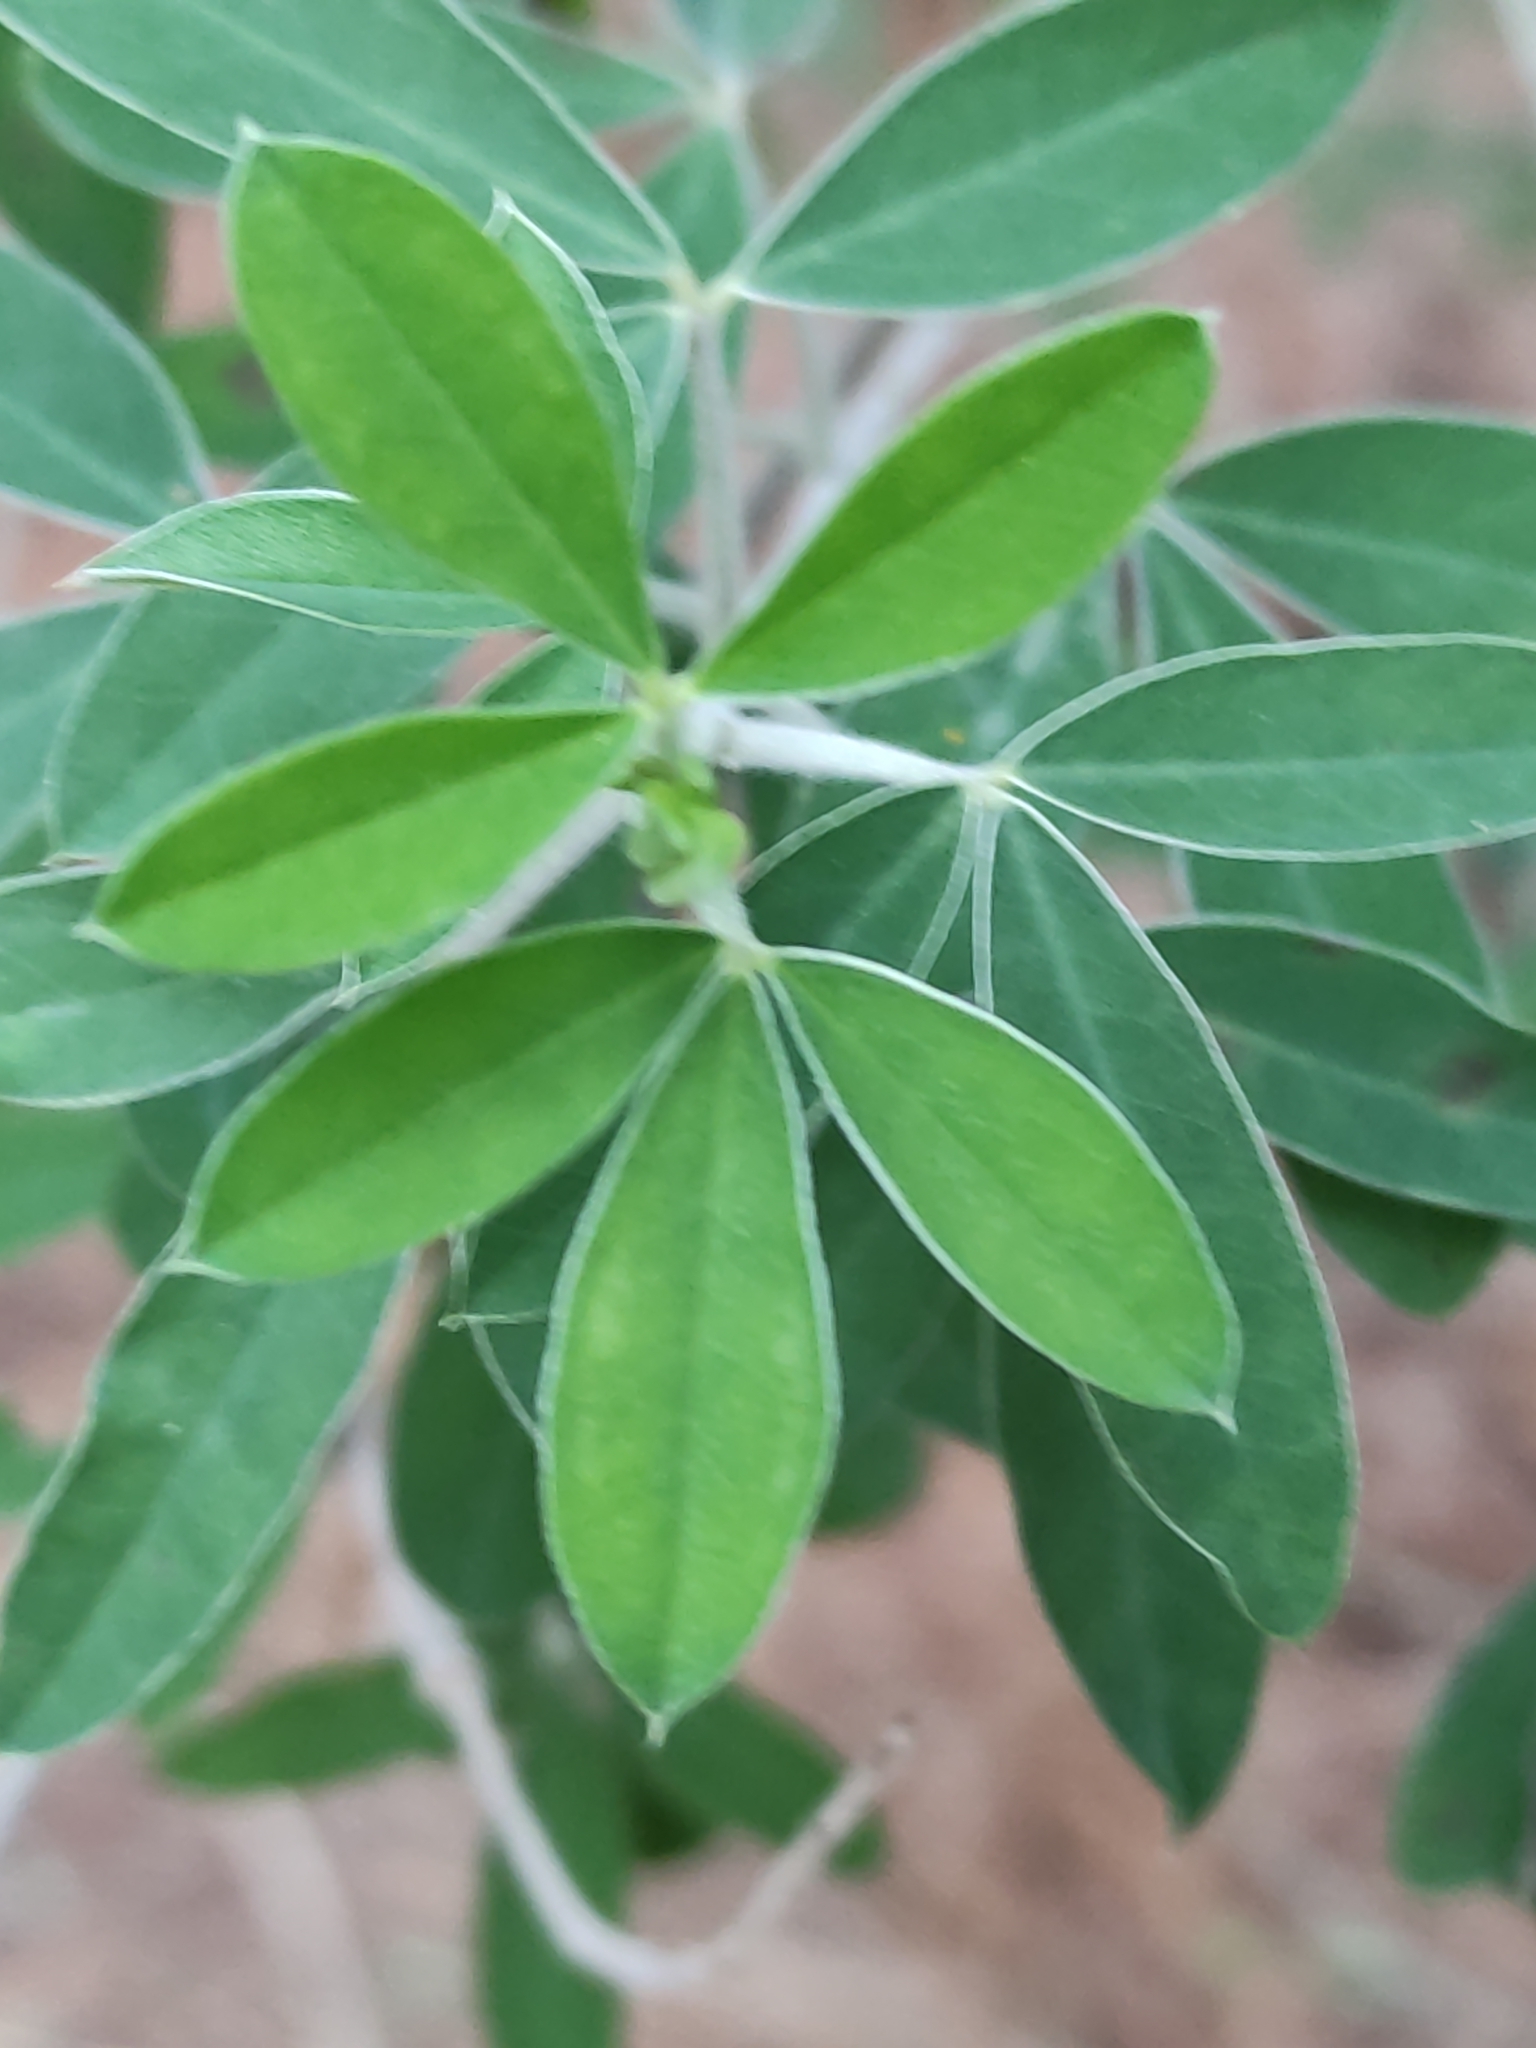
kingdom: Plantae
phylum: Tracheophyta
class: Magnoliopsida
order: Fabales
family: Fabaceae
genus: Chamaecytisus
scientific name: Chamaecytisus prolifer
